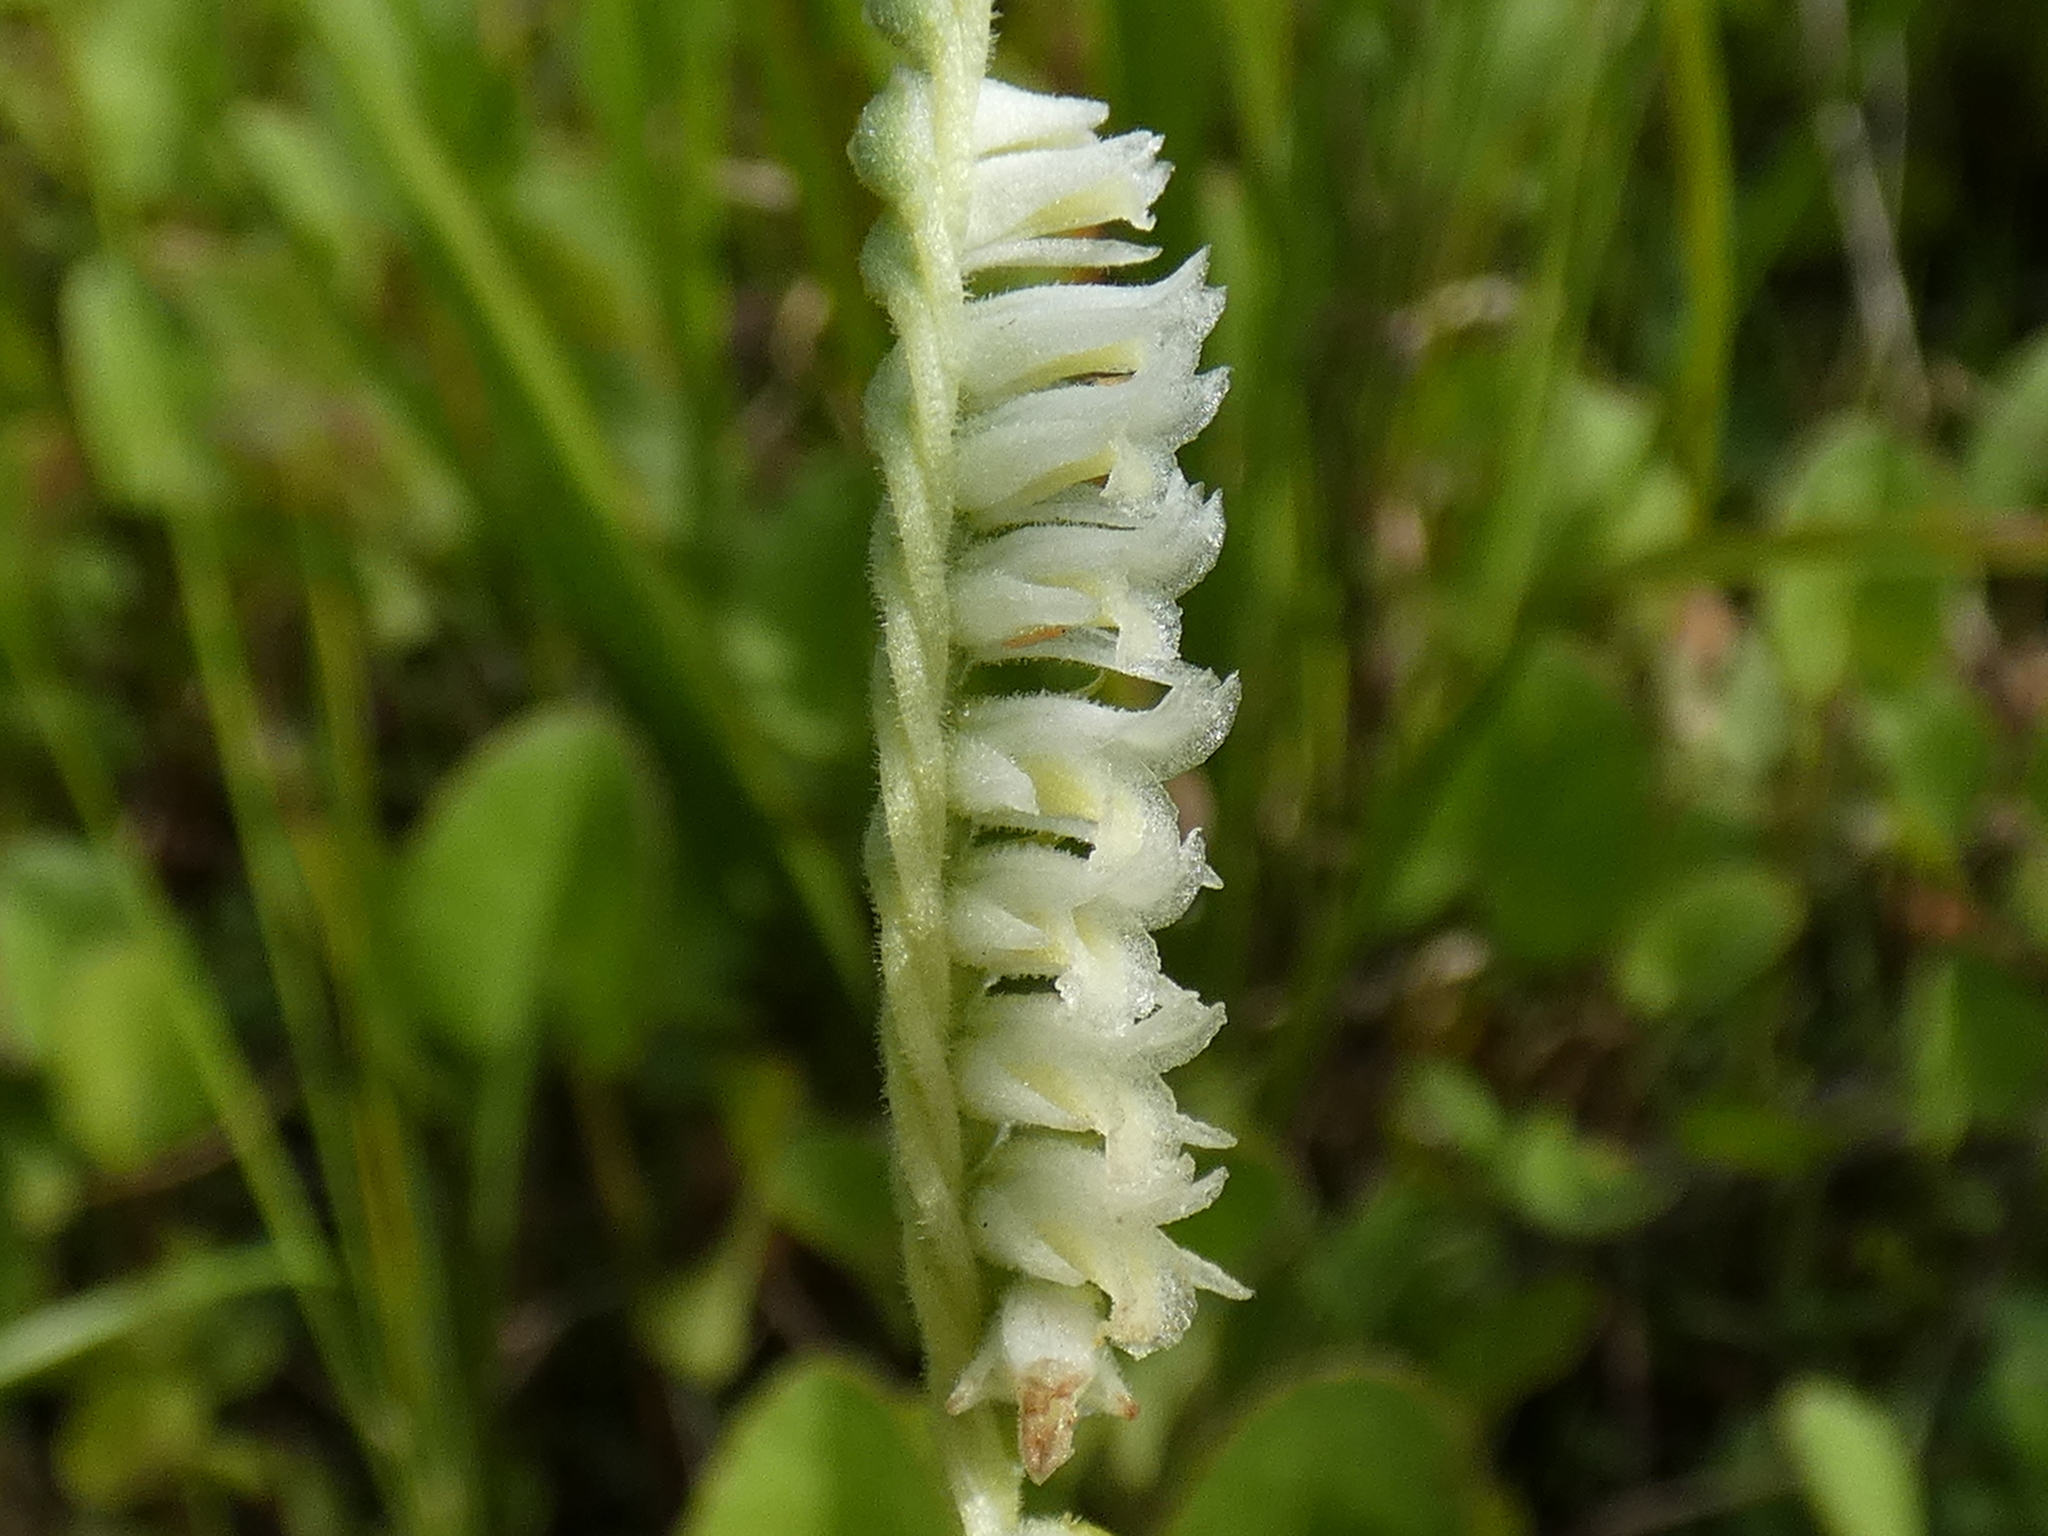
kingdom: Plantae
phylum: Tracheophyta
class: Liliopsida
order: Asparagales
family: Orchidaceae
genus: Spiranthes
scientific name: Spiranthes vernalis
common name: Spring ladies'-tresses
